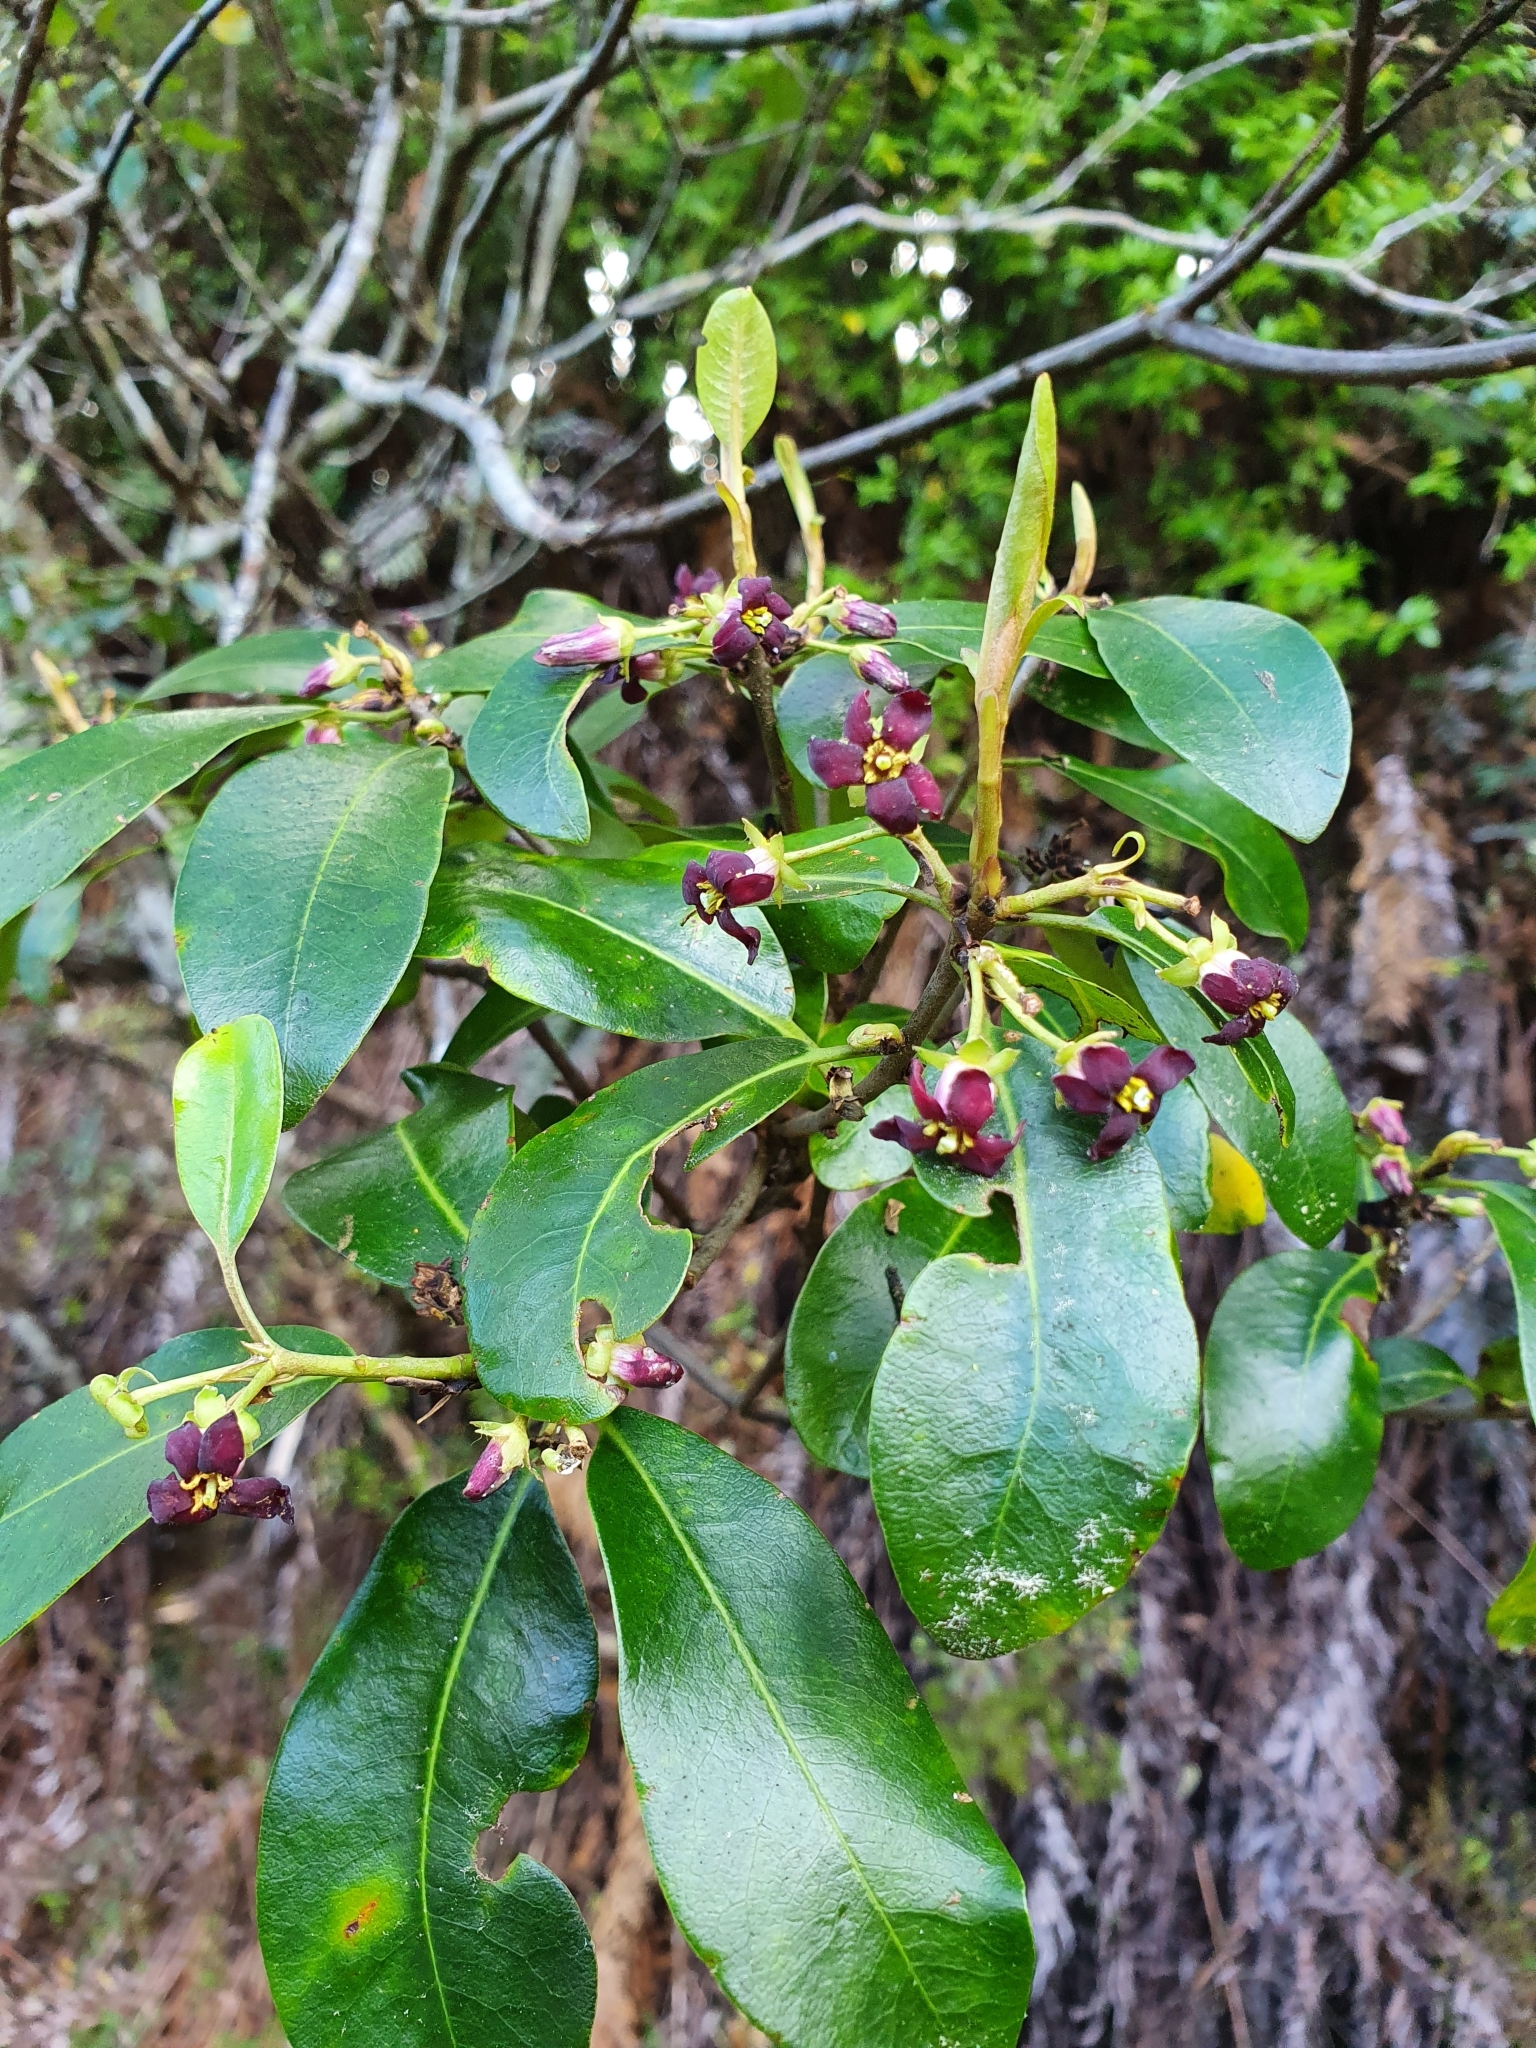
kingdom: Plantae
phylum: Tracheophyta
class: Magnoliopsida
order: Apiales
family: Pittosporaceae
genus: Pittosporum
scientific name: Pittosporum colensoi
